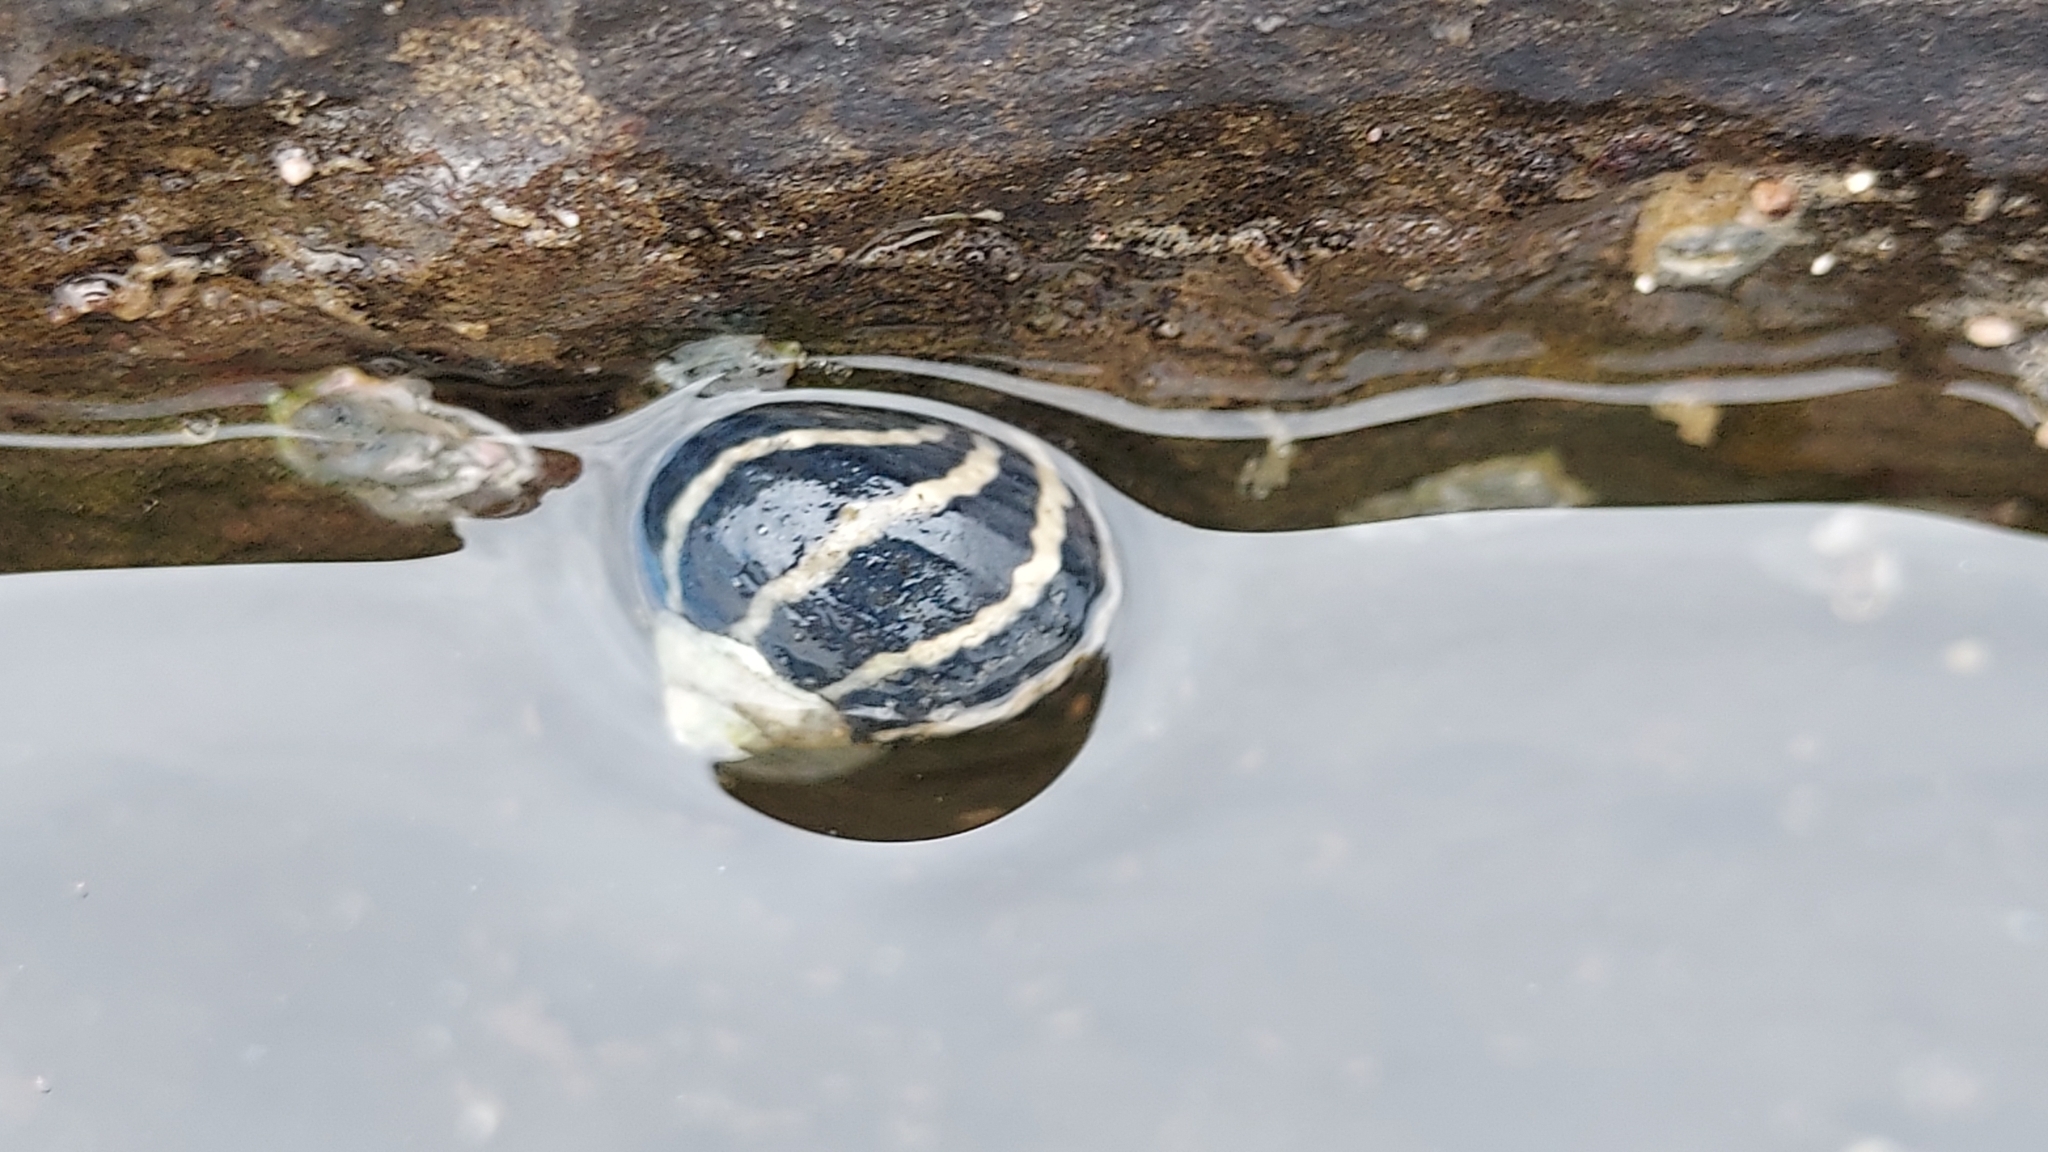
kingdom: Animalia
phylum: Mollusca
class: Gastropoda
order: Trochida
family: Trochidae
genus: Austrocochlea
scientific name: Austrocochlea porcata
